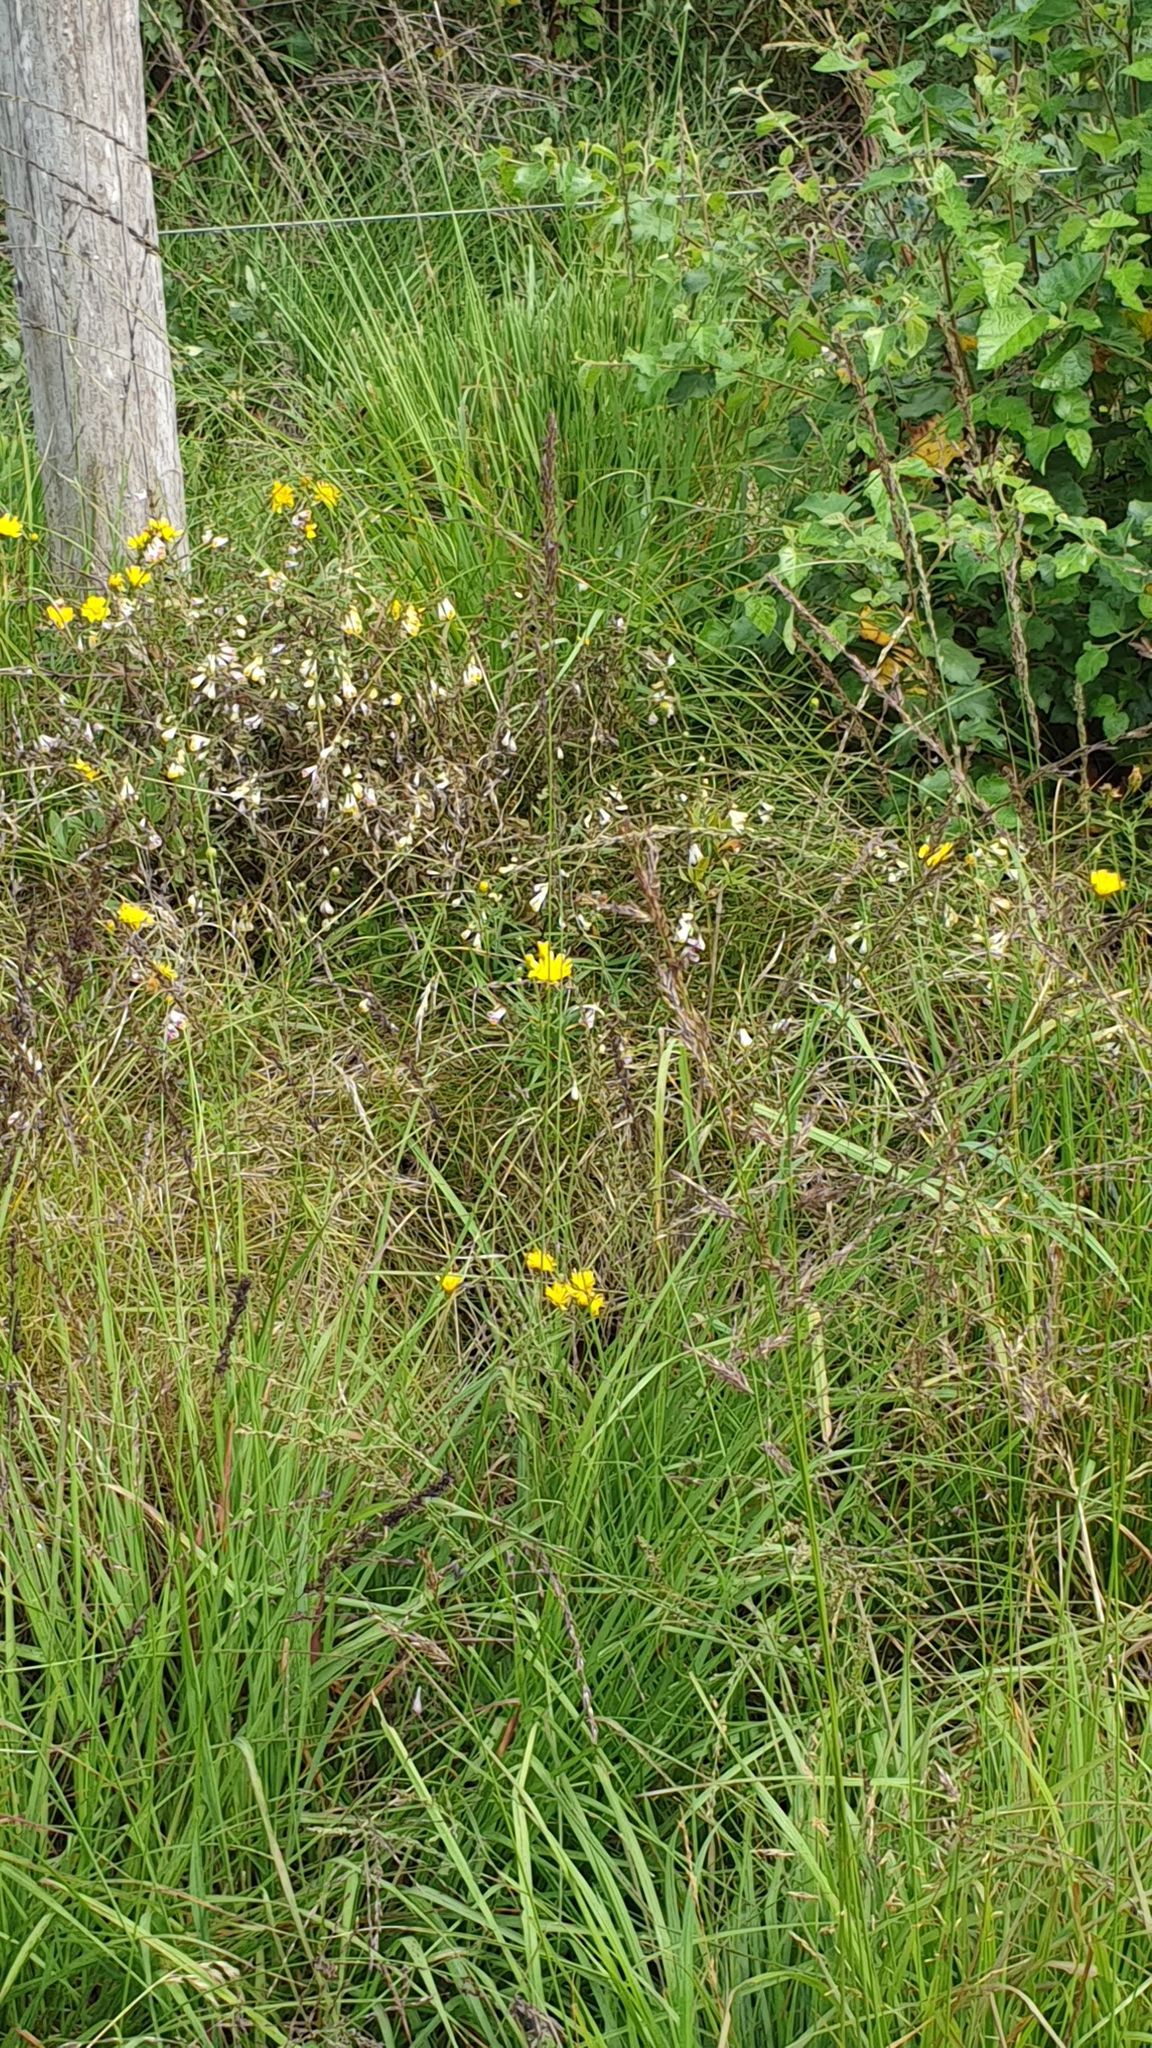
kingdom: Plantae
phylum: Tracheophyta
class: Magnoliopsida
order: Lamiales
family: Orobanchaceae
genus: Melampyrum
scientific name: Melampyrum pratense
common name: Common cow-wheat
